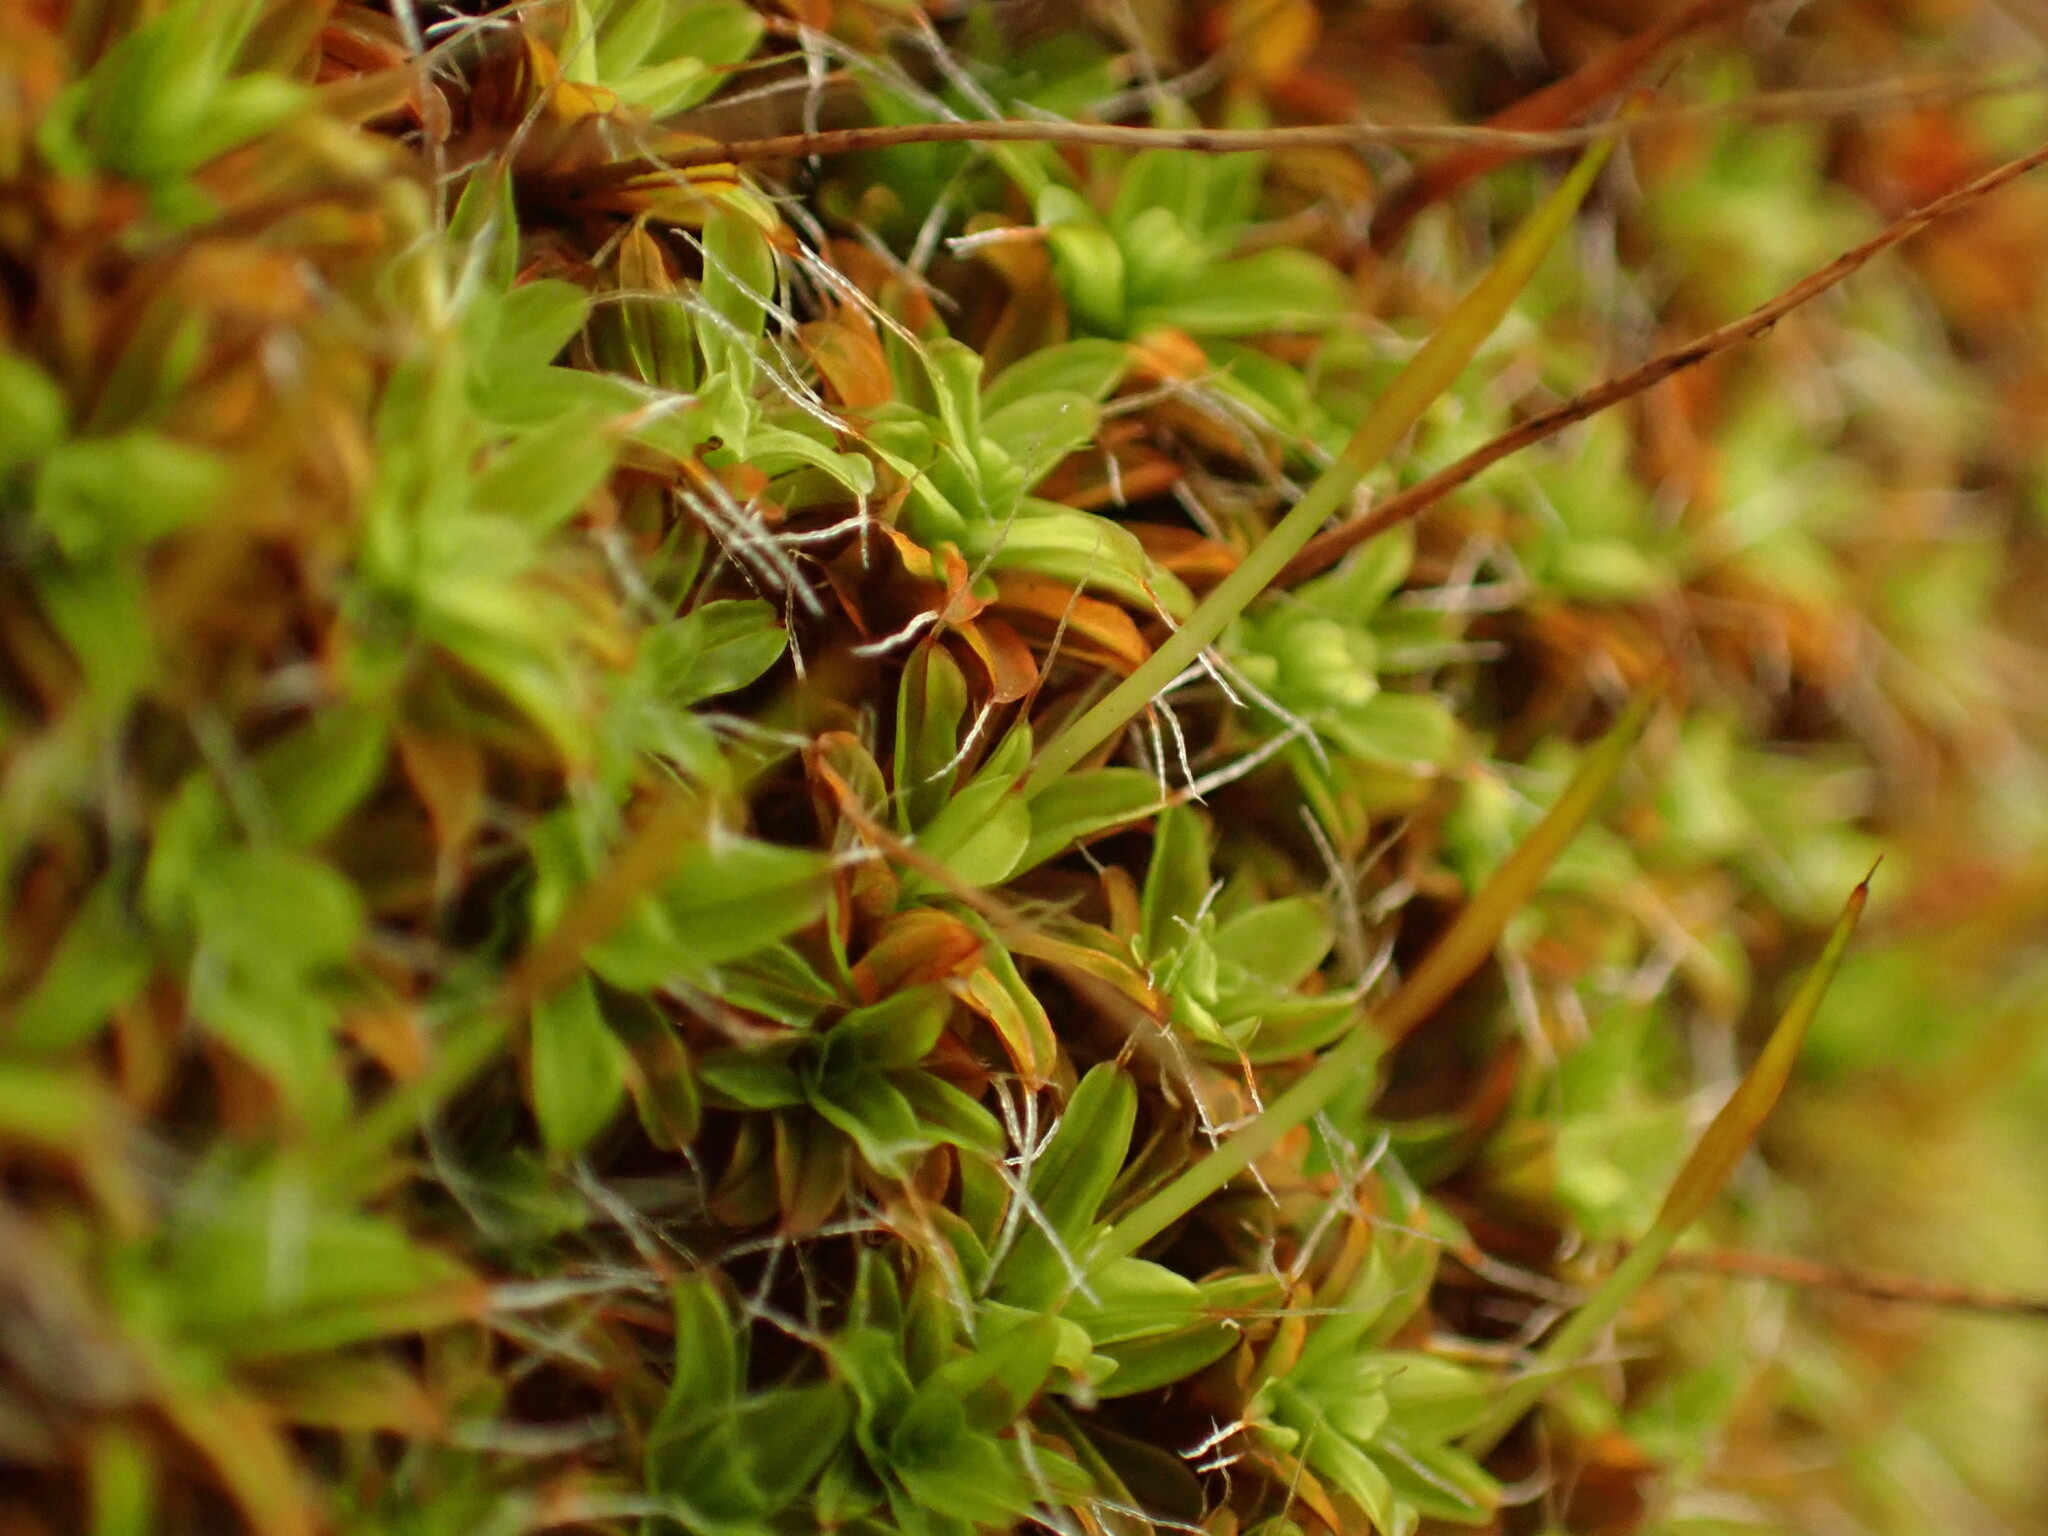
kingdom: Plantae
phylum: Bryophyta
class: Bryopsida
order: Pottiales
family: Pottiaceae
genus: Syntrichia
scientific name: Syntrichia princeps
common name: Brown screw-moss
